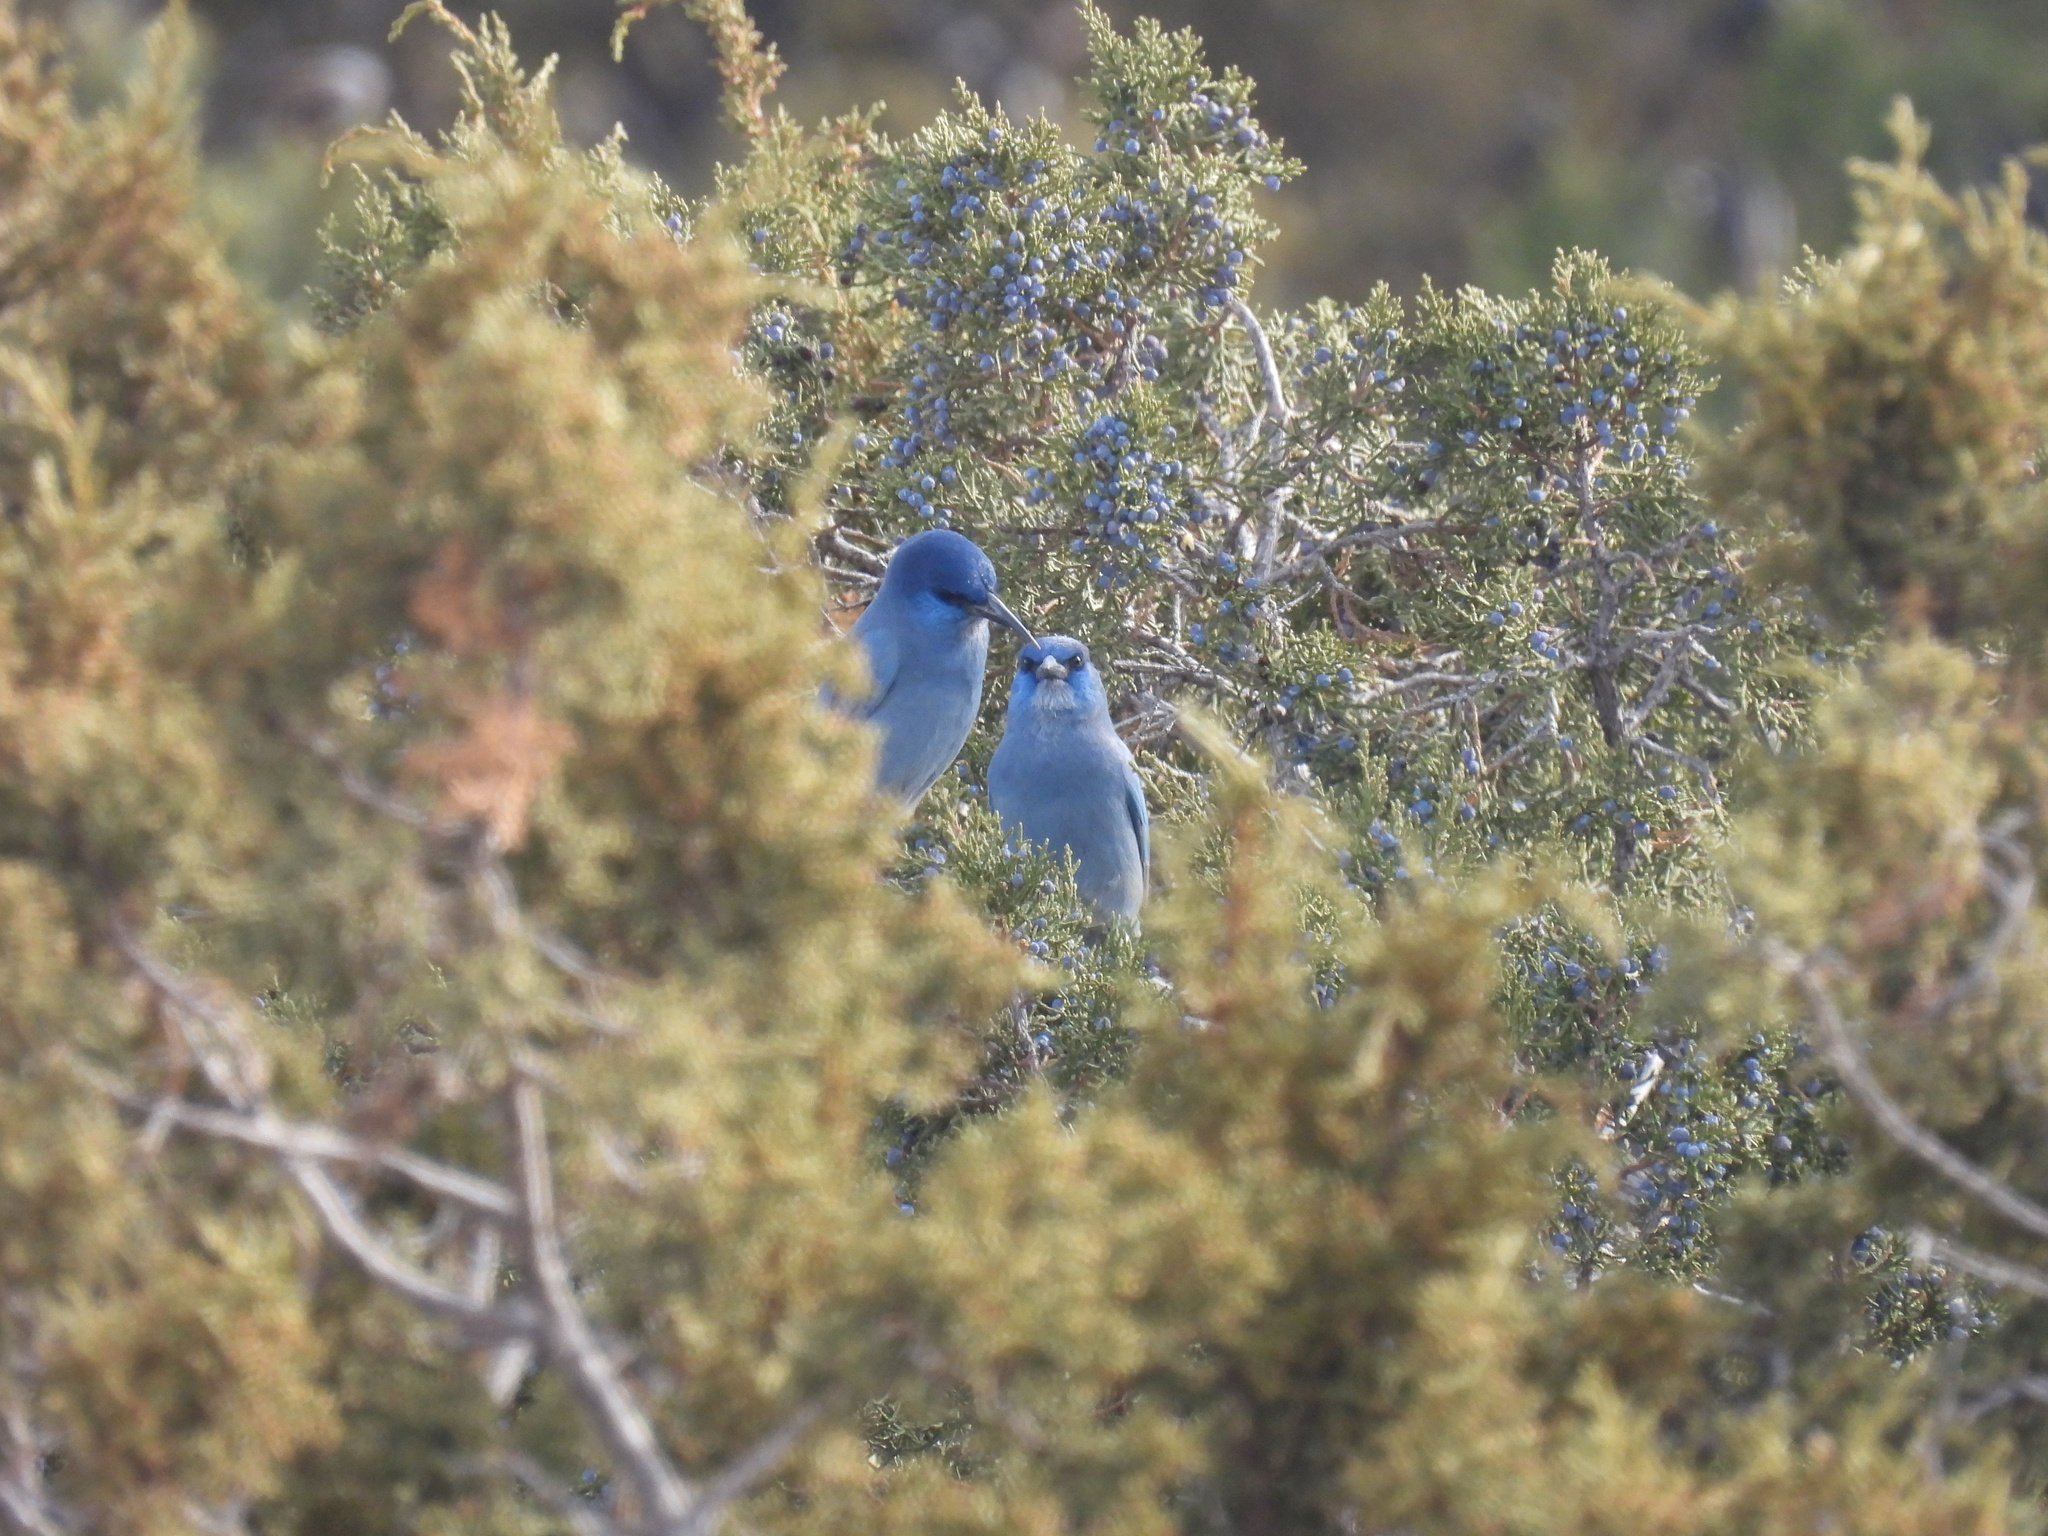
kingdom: Animalia
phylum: Chordata
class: Aves
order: Passeriformes
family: Corvidae
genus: Gymnorhinus
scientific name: Gymnorhinus cyanocephalus
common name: Pinyon jay
